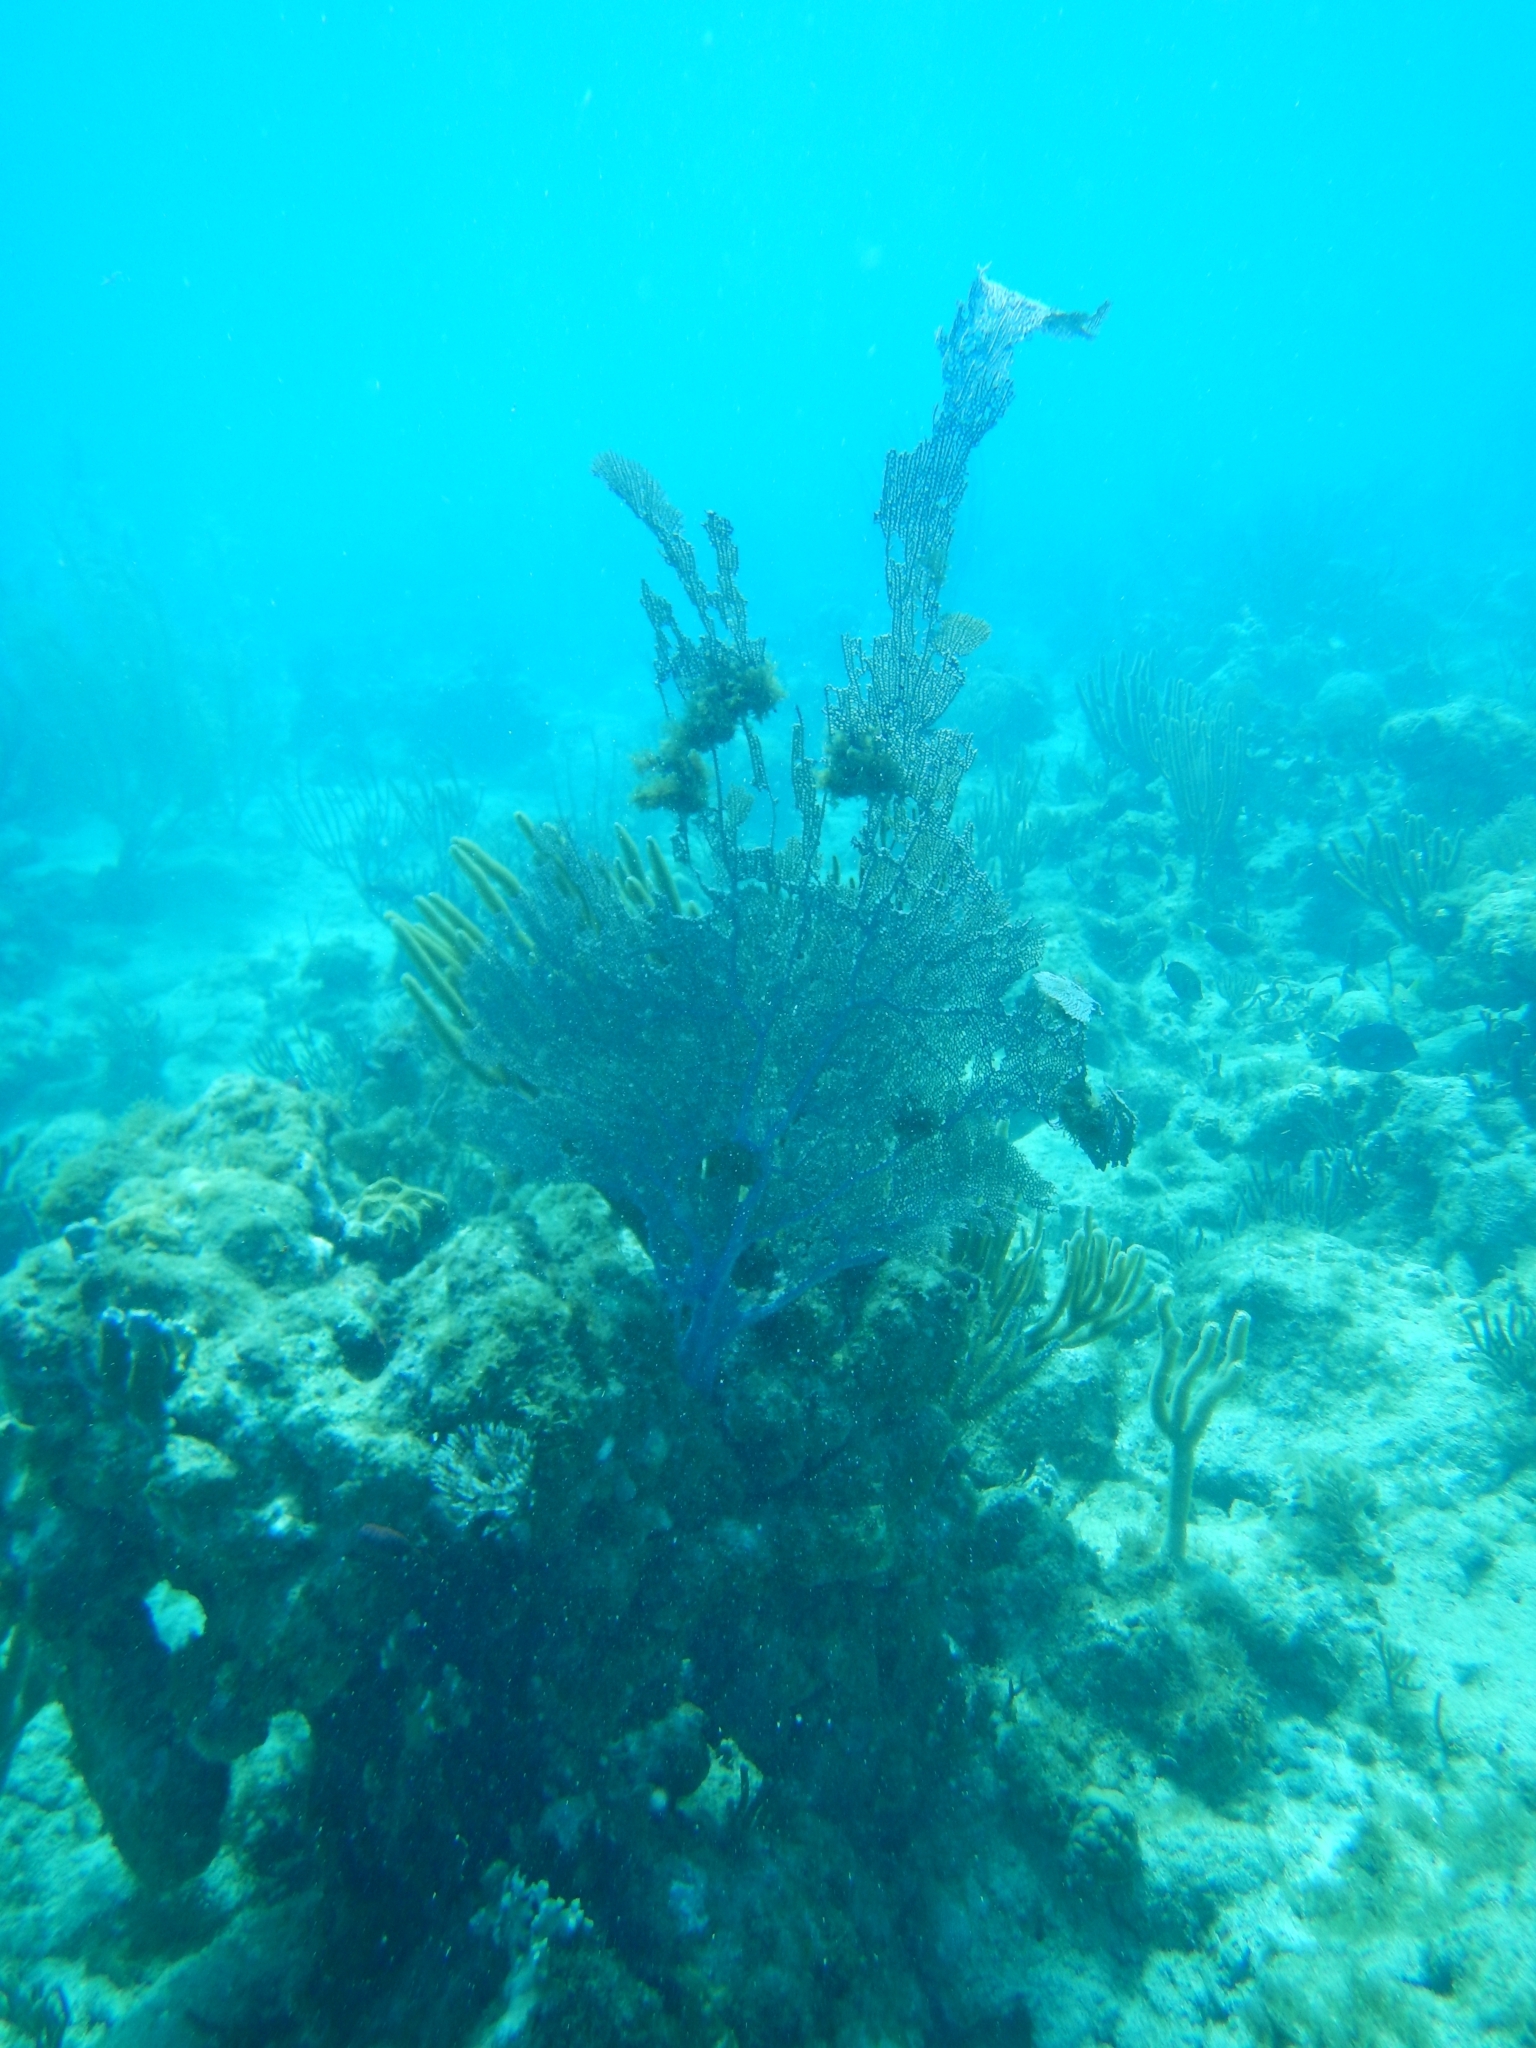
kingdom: Animalia
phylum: Cnidaria
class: Anthozoa
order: Malacalcyonacea
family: Gorgoniidae
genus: Gorgonia
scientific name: Gorgonia ventalina
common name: Common sea fan
